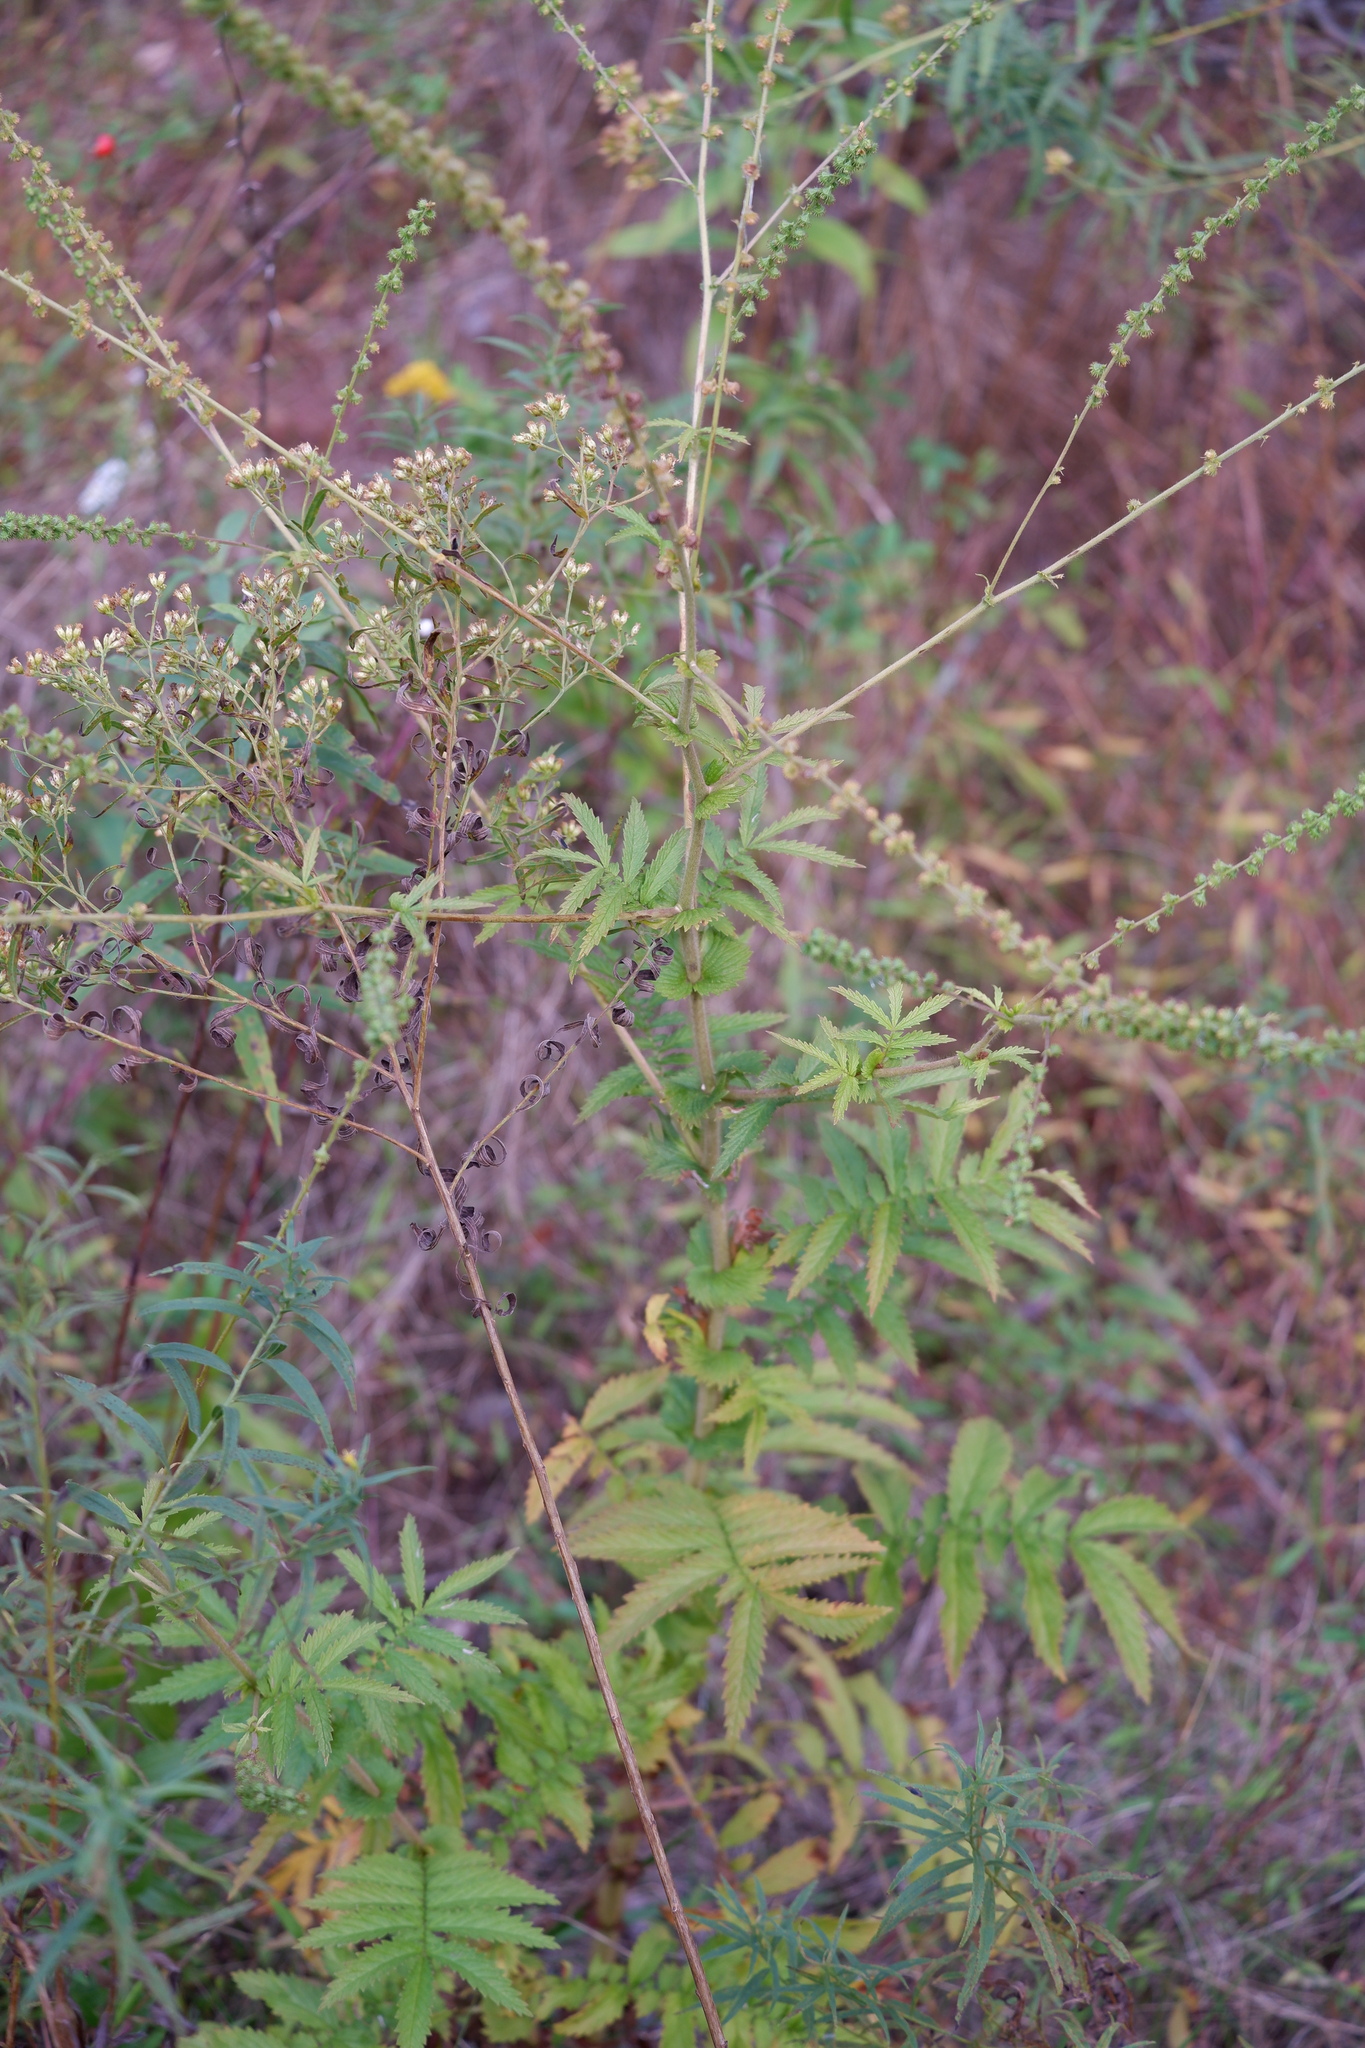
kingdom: Plantae
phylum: Tracheophyta
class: Magnoliopsida
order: Rosales
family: Rosaceae
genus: Agrimonia
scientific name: Agrimonia parviflora
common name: Harvest-lice
